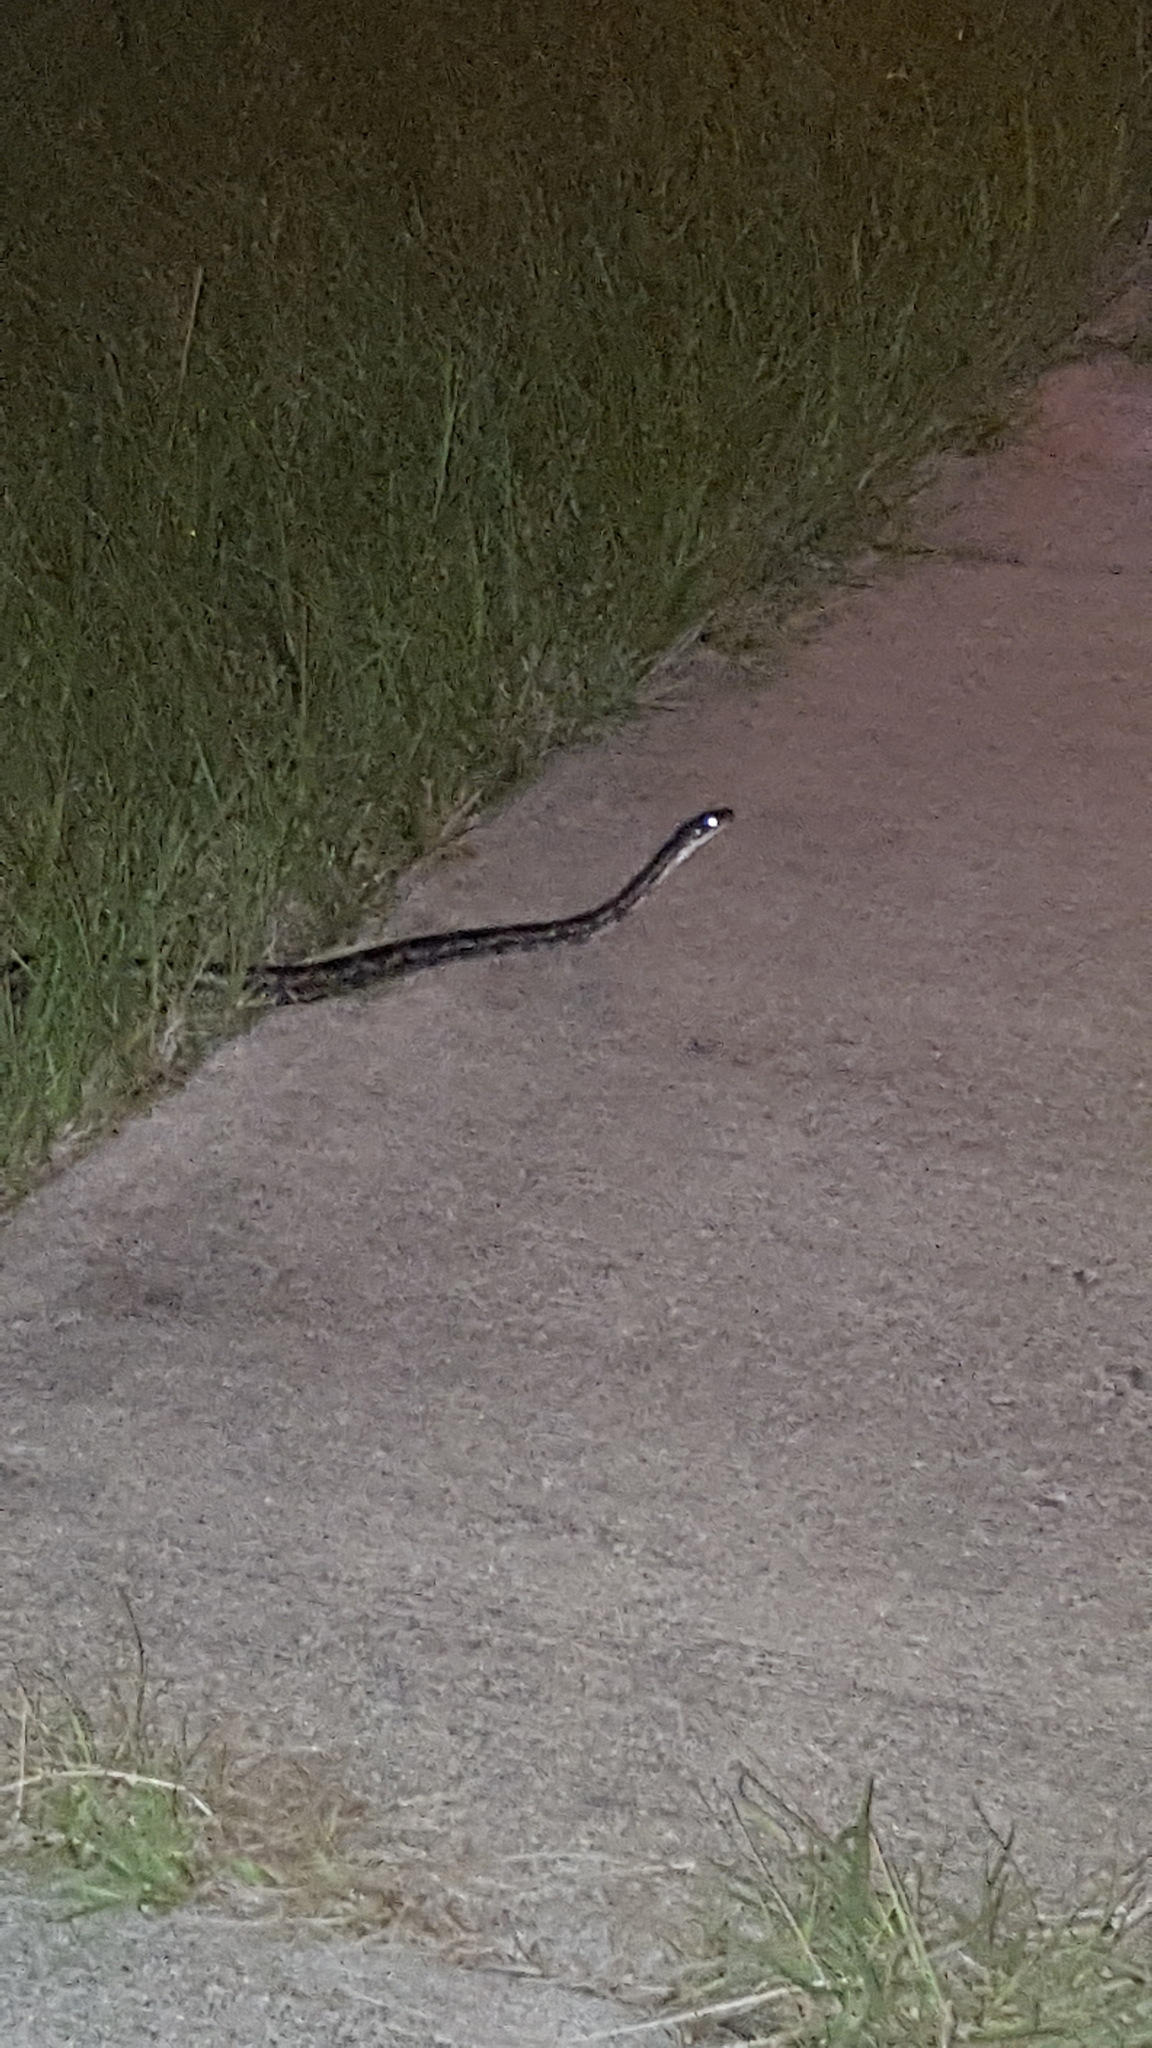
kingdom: Animalia
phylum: Chordata
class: Squamata
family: Colubridae
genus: Pantherophis
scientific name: Pantherophis obsoletus
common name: Black rat snake
